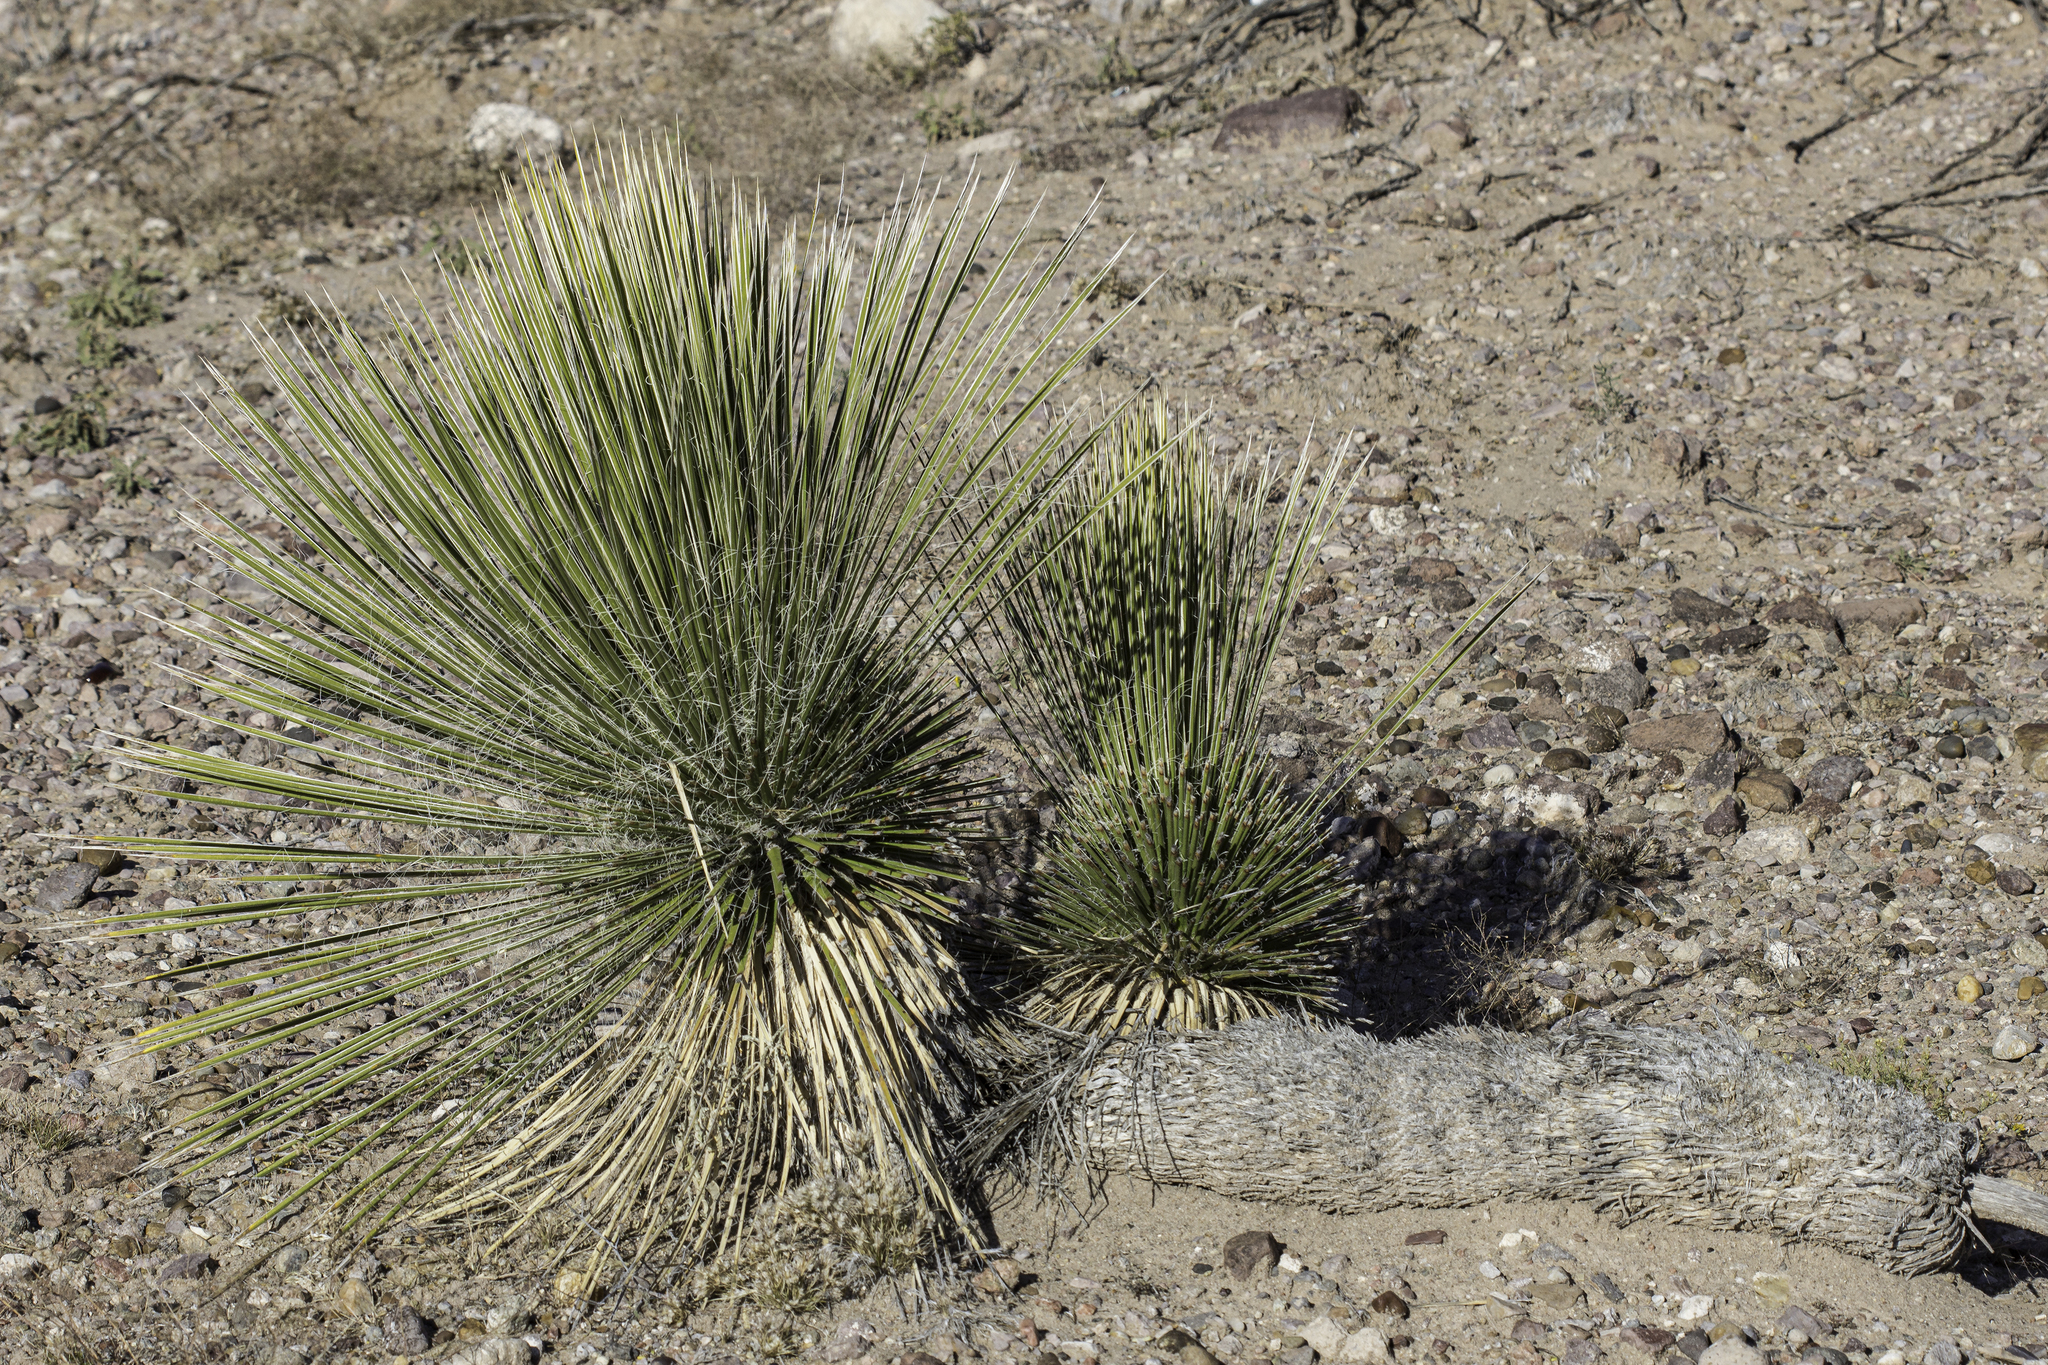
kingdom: Plantae
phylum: Tracheophyta
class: Liliopsida
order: Asparagales
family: Asparagaceae
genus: Yucca
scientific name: Yucca elata
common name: Palmella
